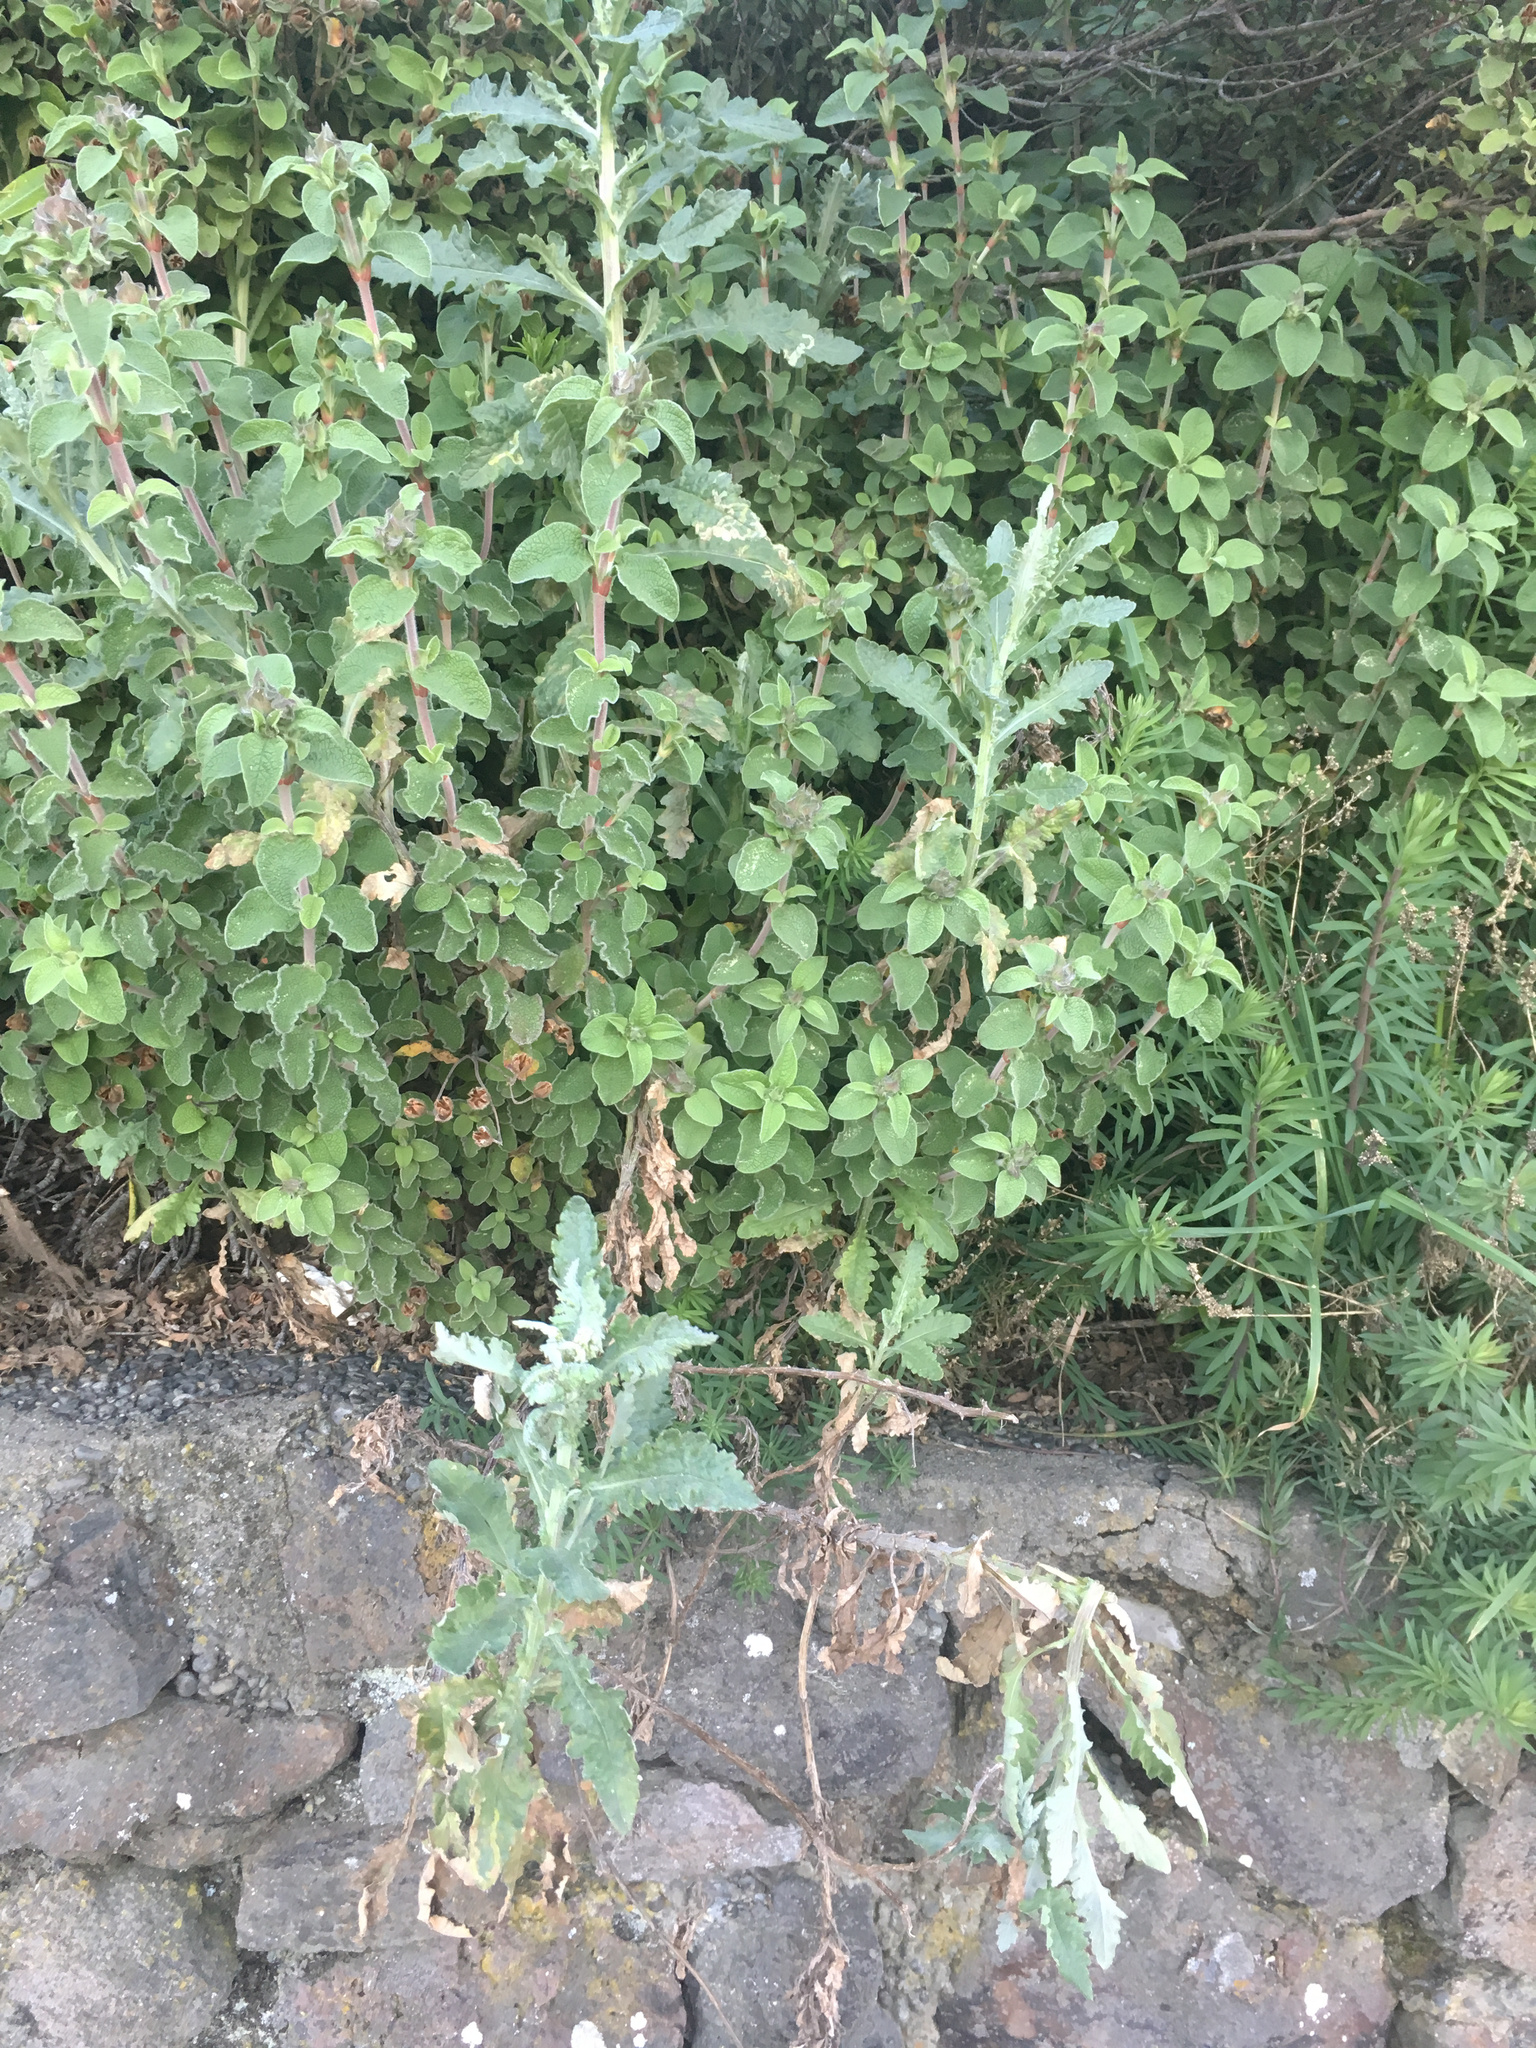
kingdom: Plantae
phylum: Tracheophyta
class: Magnoliopsida
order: Asterales
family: Asteraceae
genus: Senecio
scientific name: Senecio glomeratus
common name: Cutleaf burnweed
